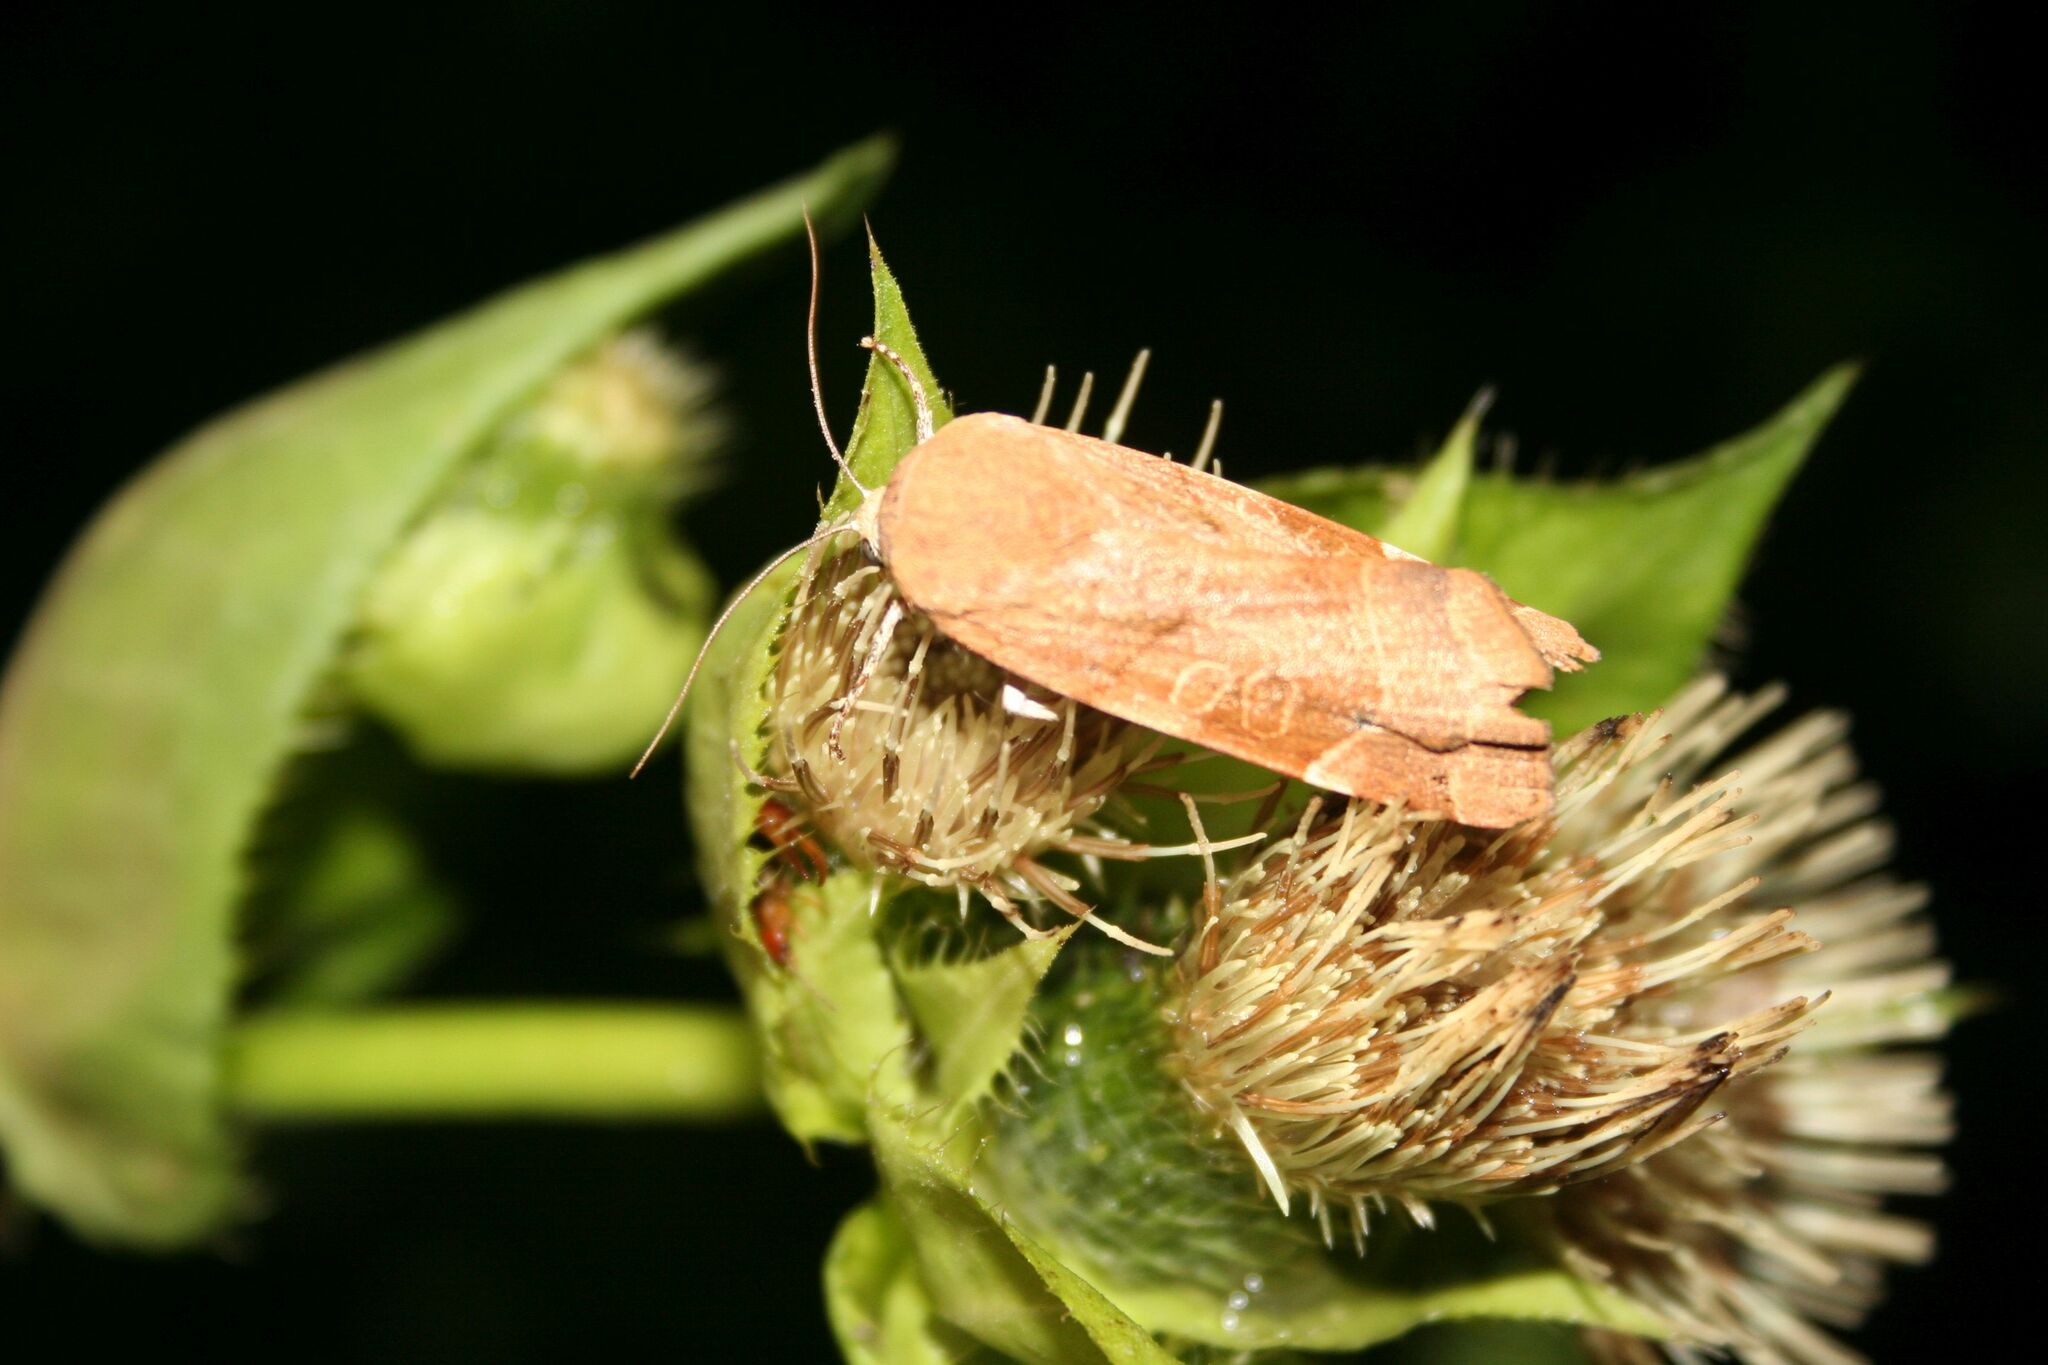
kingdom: Animalia
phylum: Arthropoda
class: Insecta
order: Lepidoptera
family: Noctuidae
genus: Noctua
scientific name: Noctua fimbriata
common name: Broad-bordered yellow underwing
